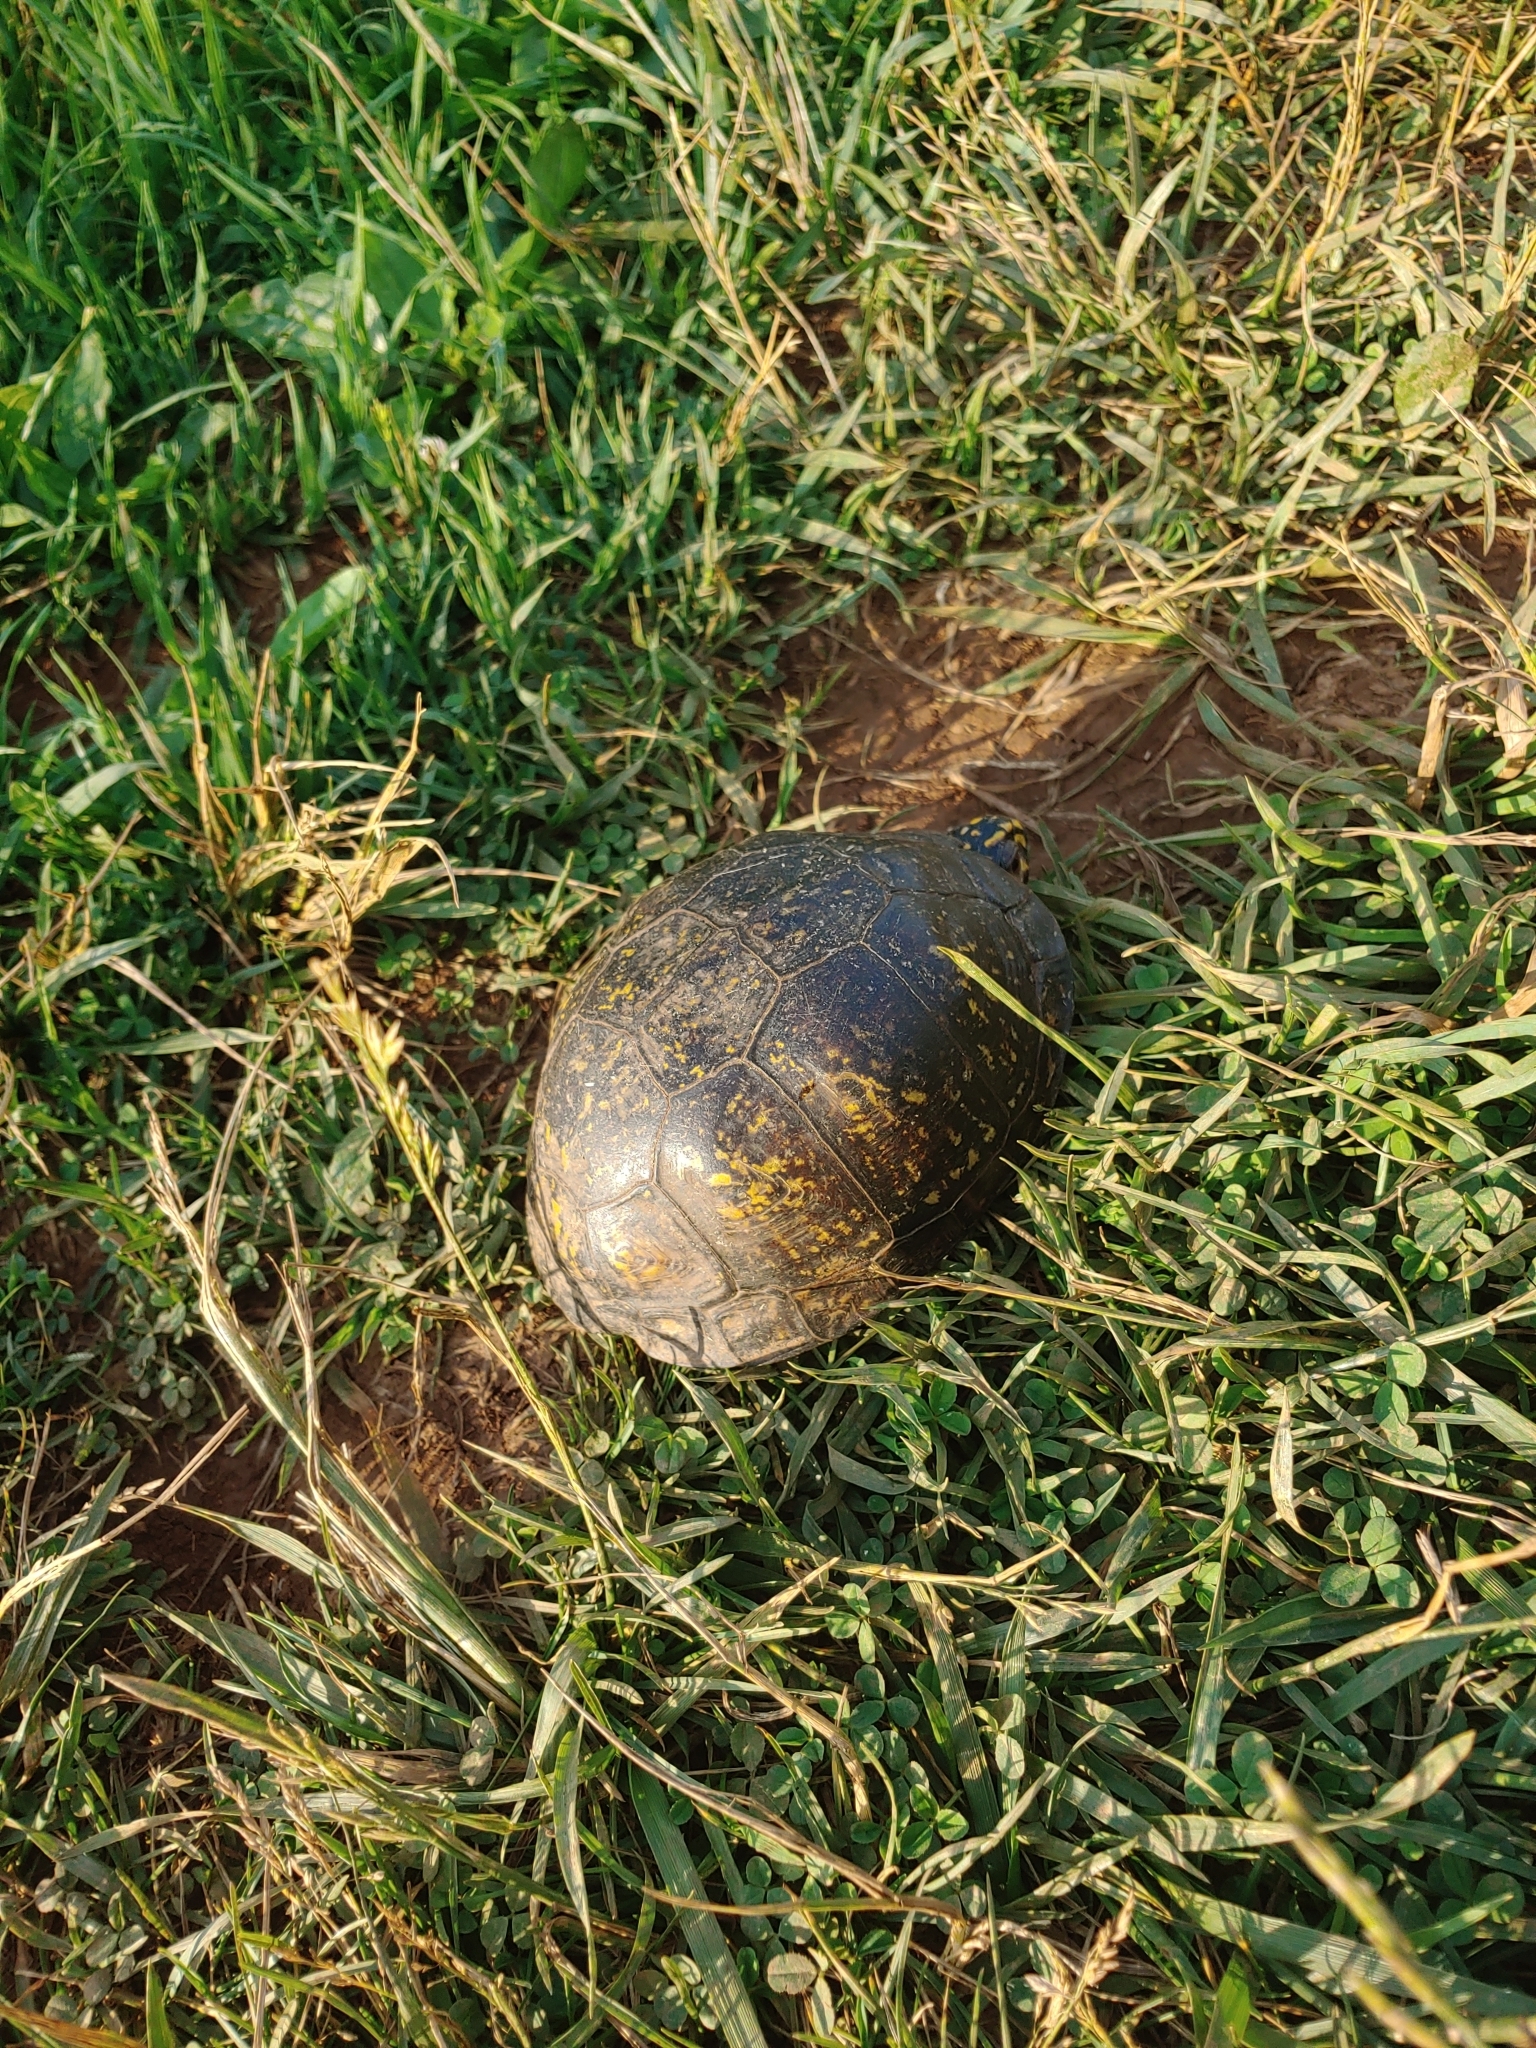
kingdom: Animalia
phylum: Chordata
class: Testudines
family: Emydidae
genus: Terrapene
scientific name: Terrapene carolina
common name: Common box turtle
